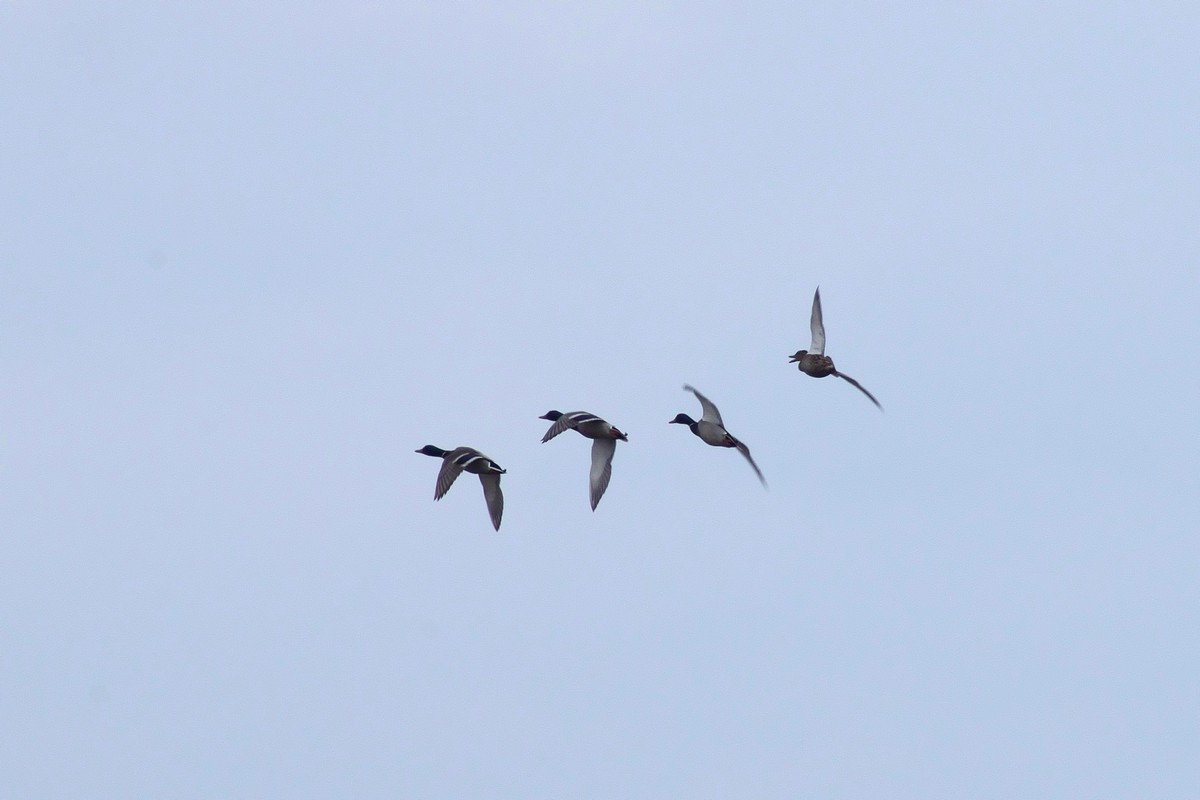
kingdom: Animalia
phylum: Chordata
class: Aves
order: Anseriformes
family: Anatidae
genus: Anas
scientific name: Anas platyrhynchos
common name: Mallard
